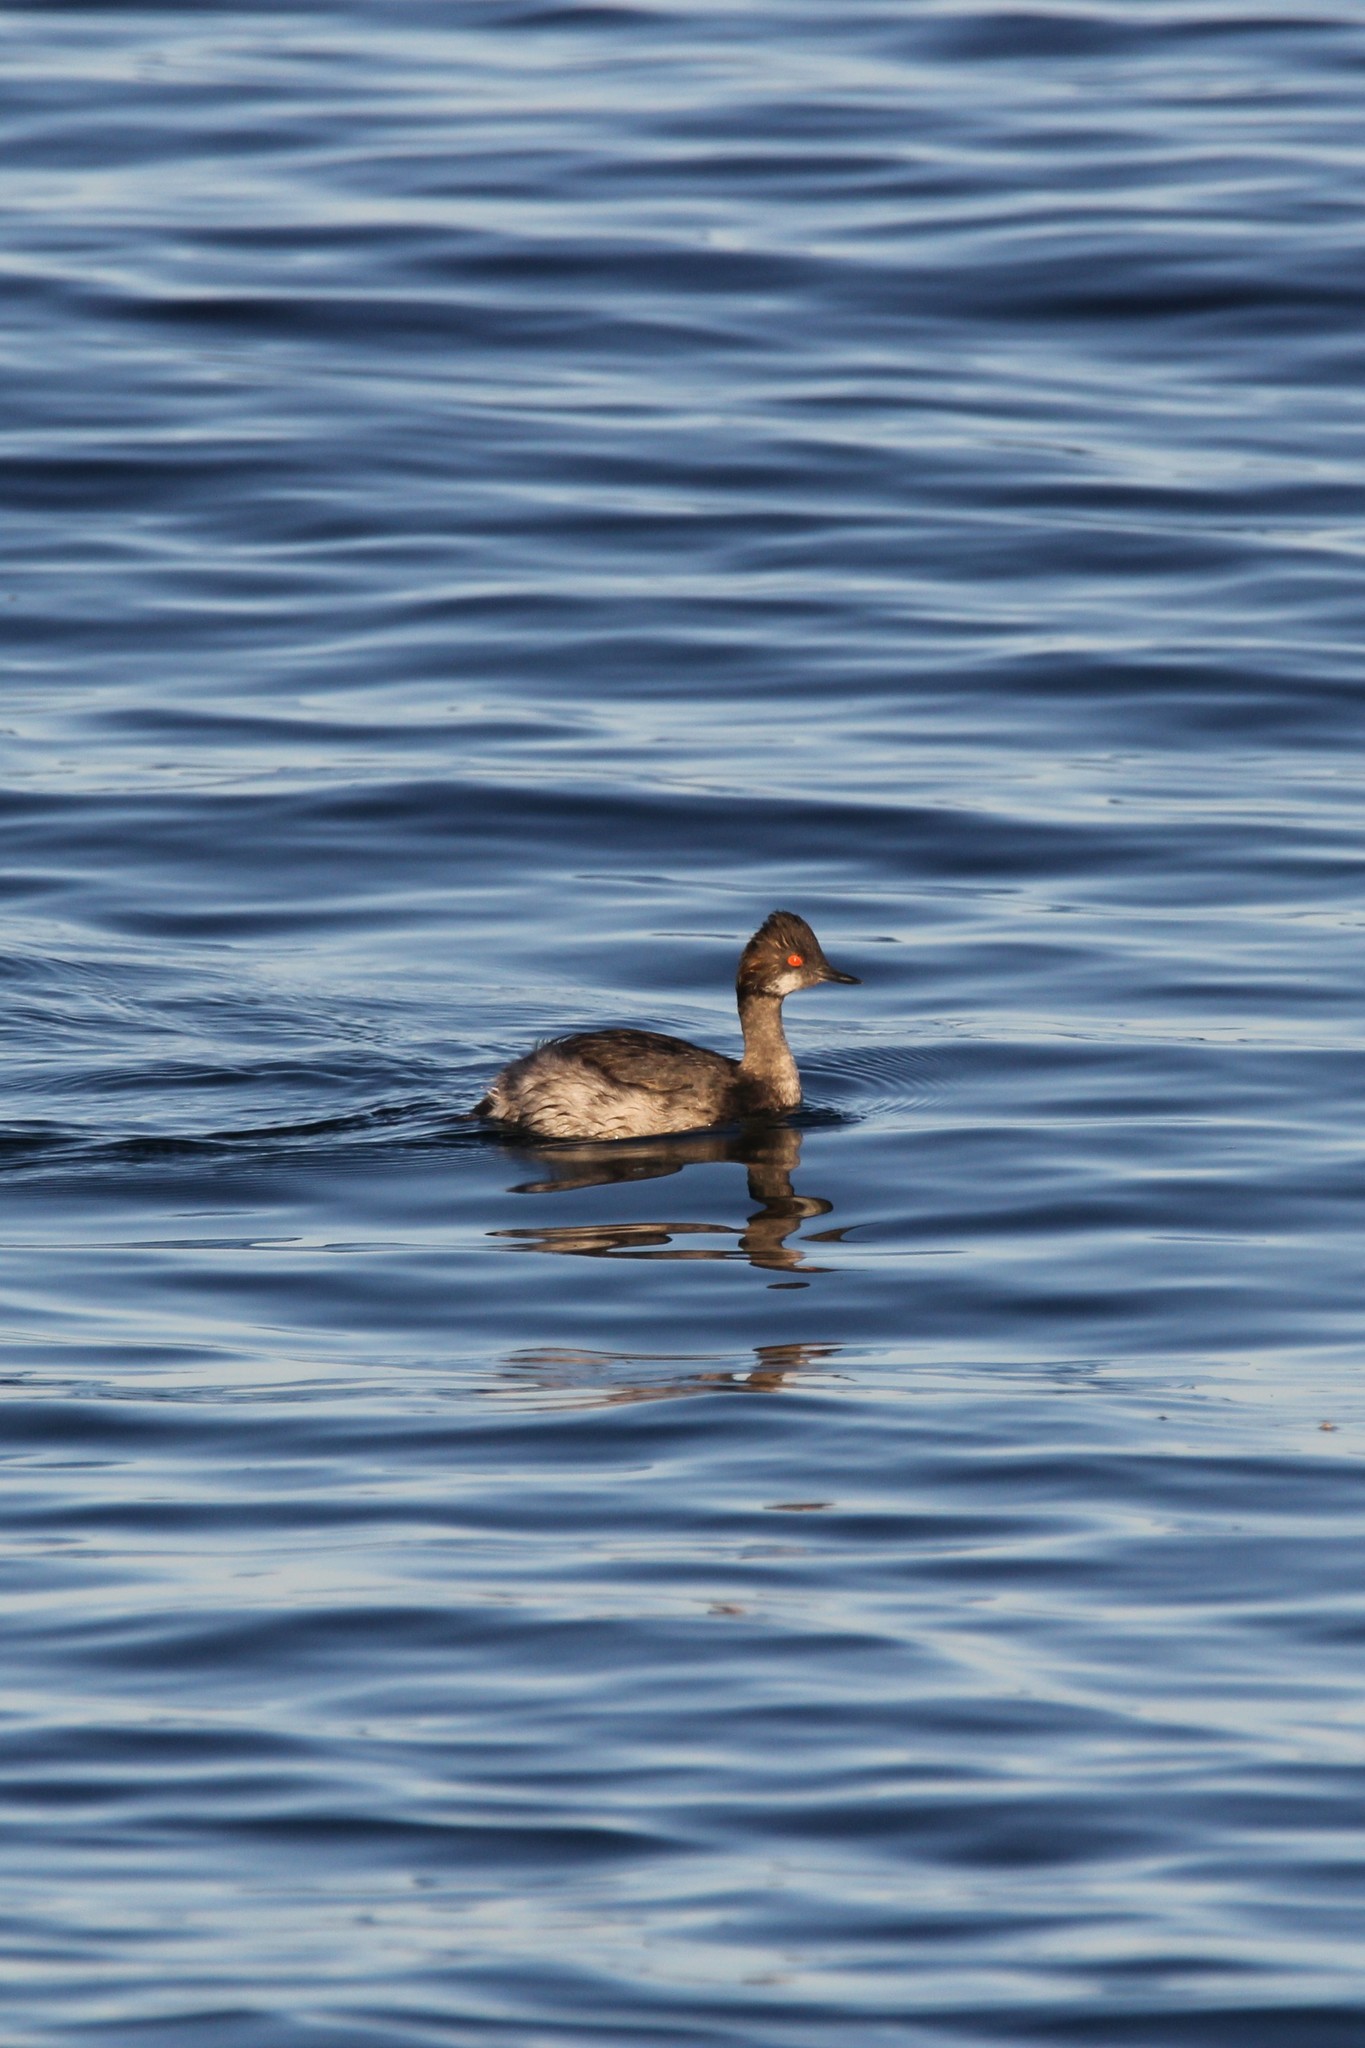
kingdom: Animalia
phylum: Chordata
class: Aves
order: Podicipediformes
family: Podicipedidae
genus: Podiceps
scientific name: Podiceps nigricollis
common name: Black-necked grebe
